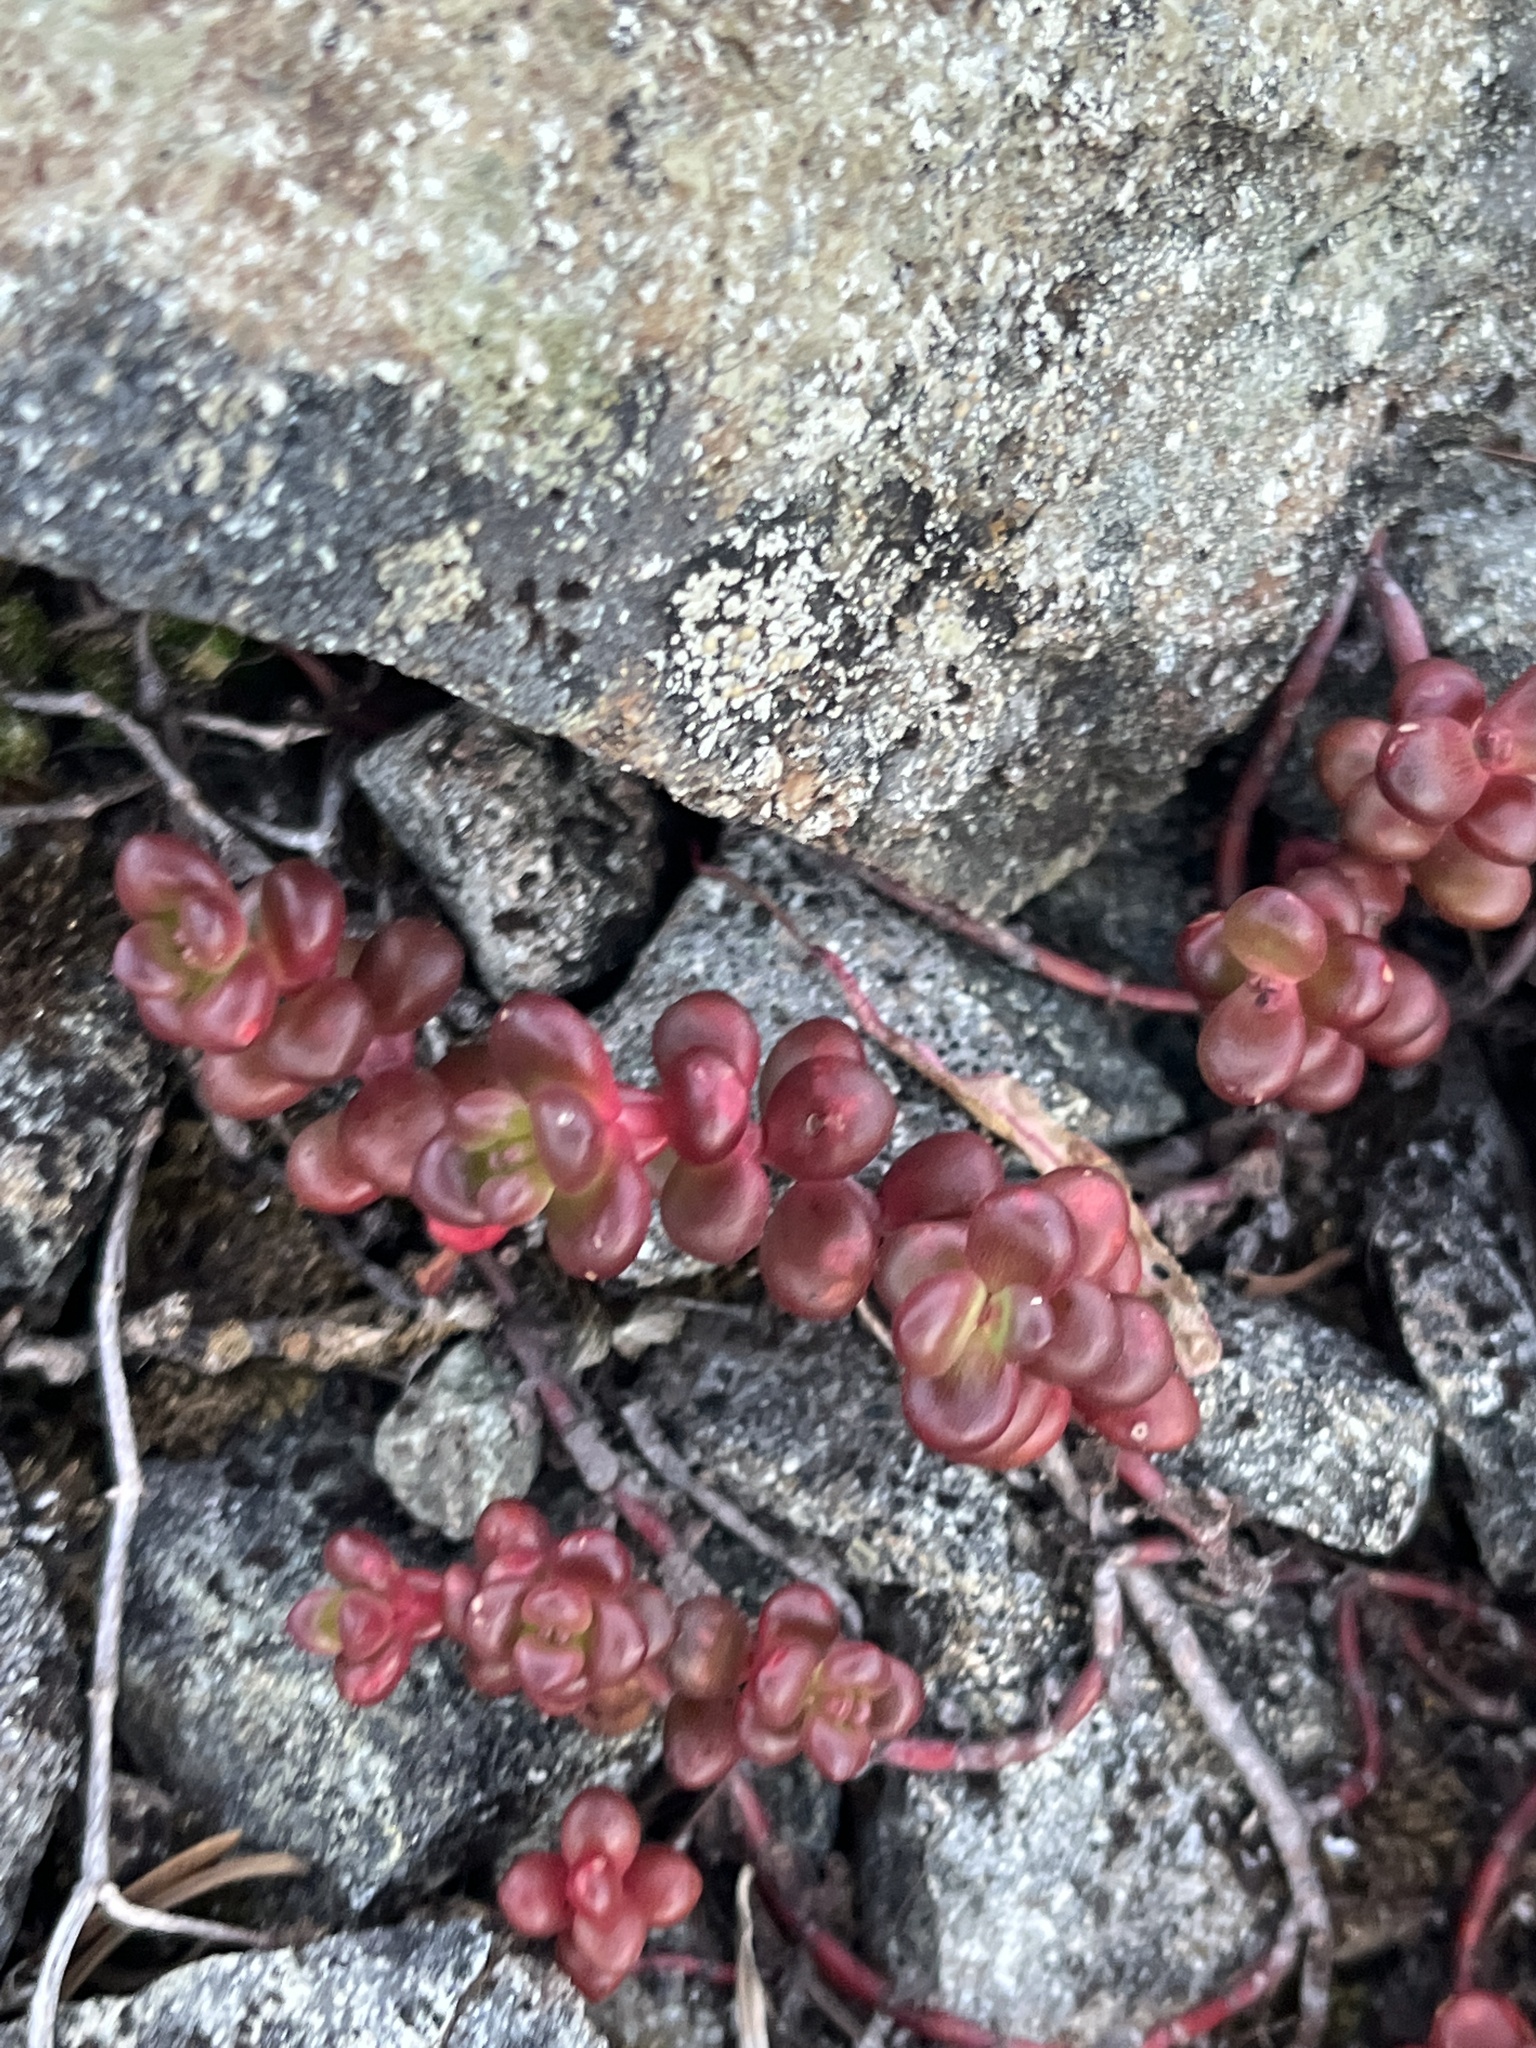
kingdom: Plantae
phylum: Tracheophyta
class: Magnoliopsida
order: Saxifragales
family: Crassulaceae
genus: Sedum
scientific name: Sedum divergens
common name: Cascade stonecrop
